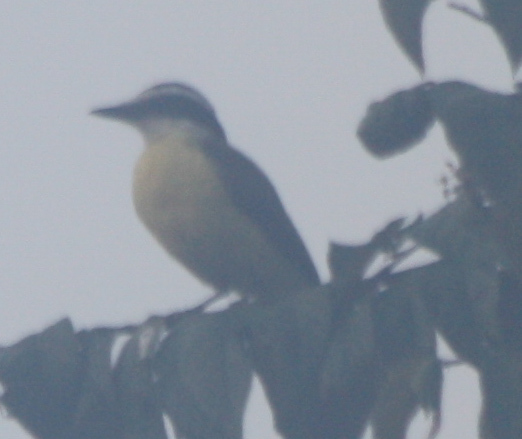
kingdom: Animalia
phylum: Chordata
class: Aves
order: Passeriformes
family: Tyrannidae
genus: Pitangus
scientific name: Pitangus sulphuratus
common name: Great kiskadee
